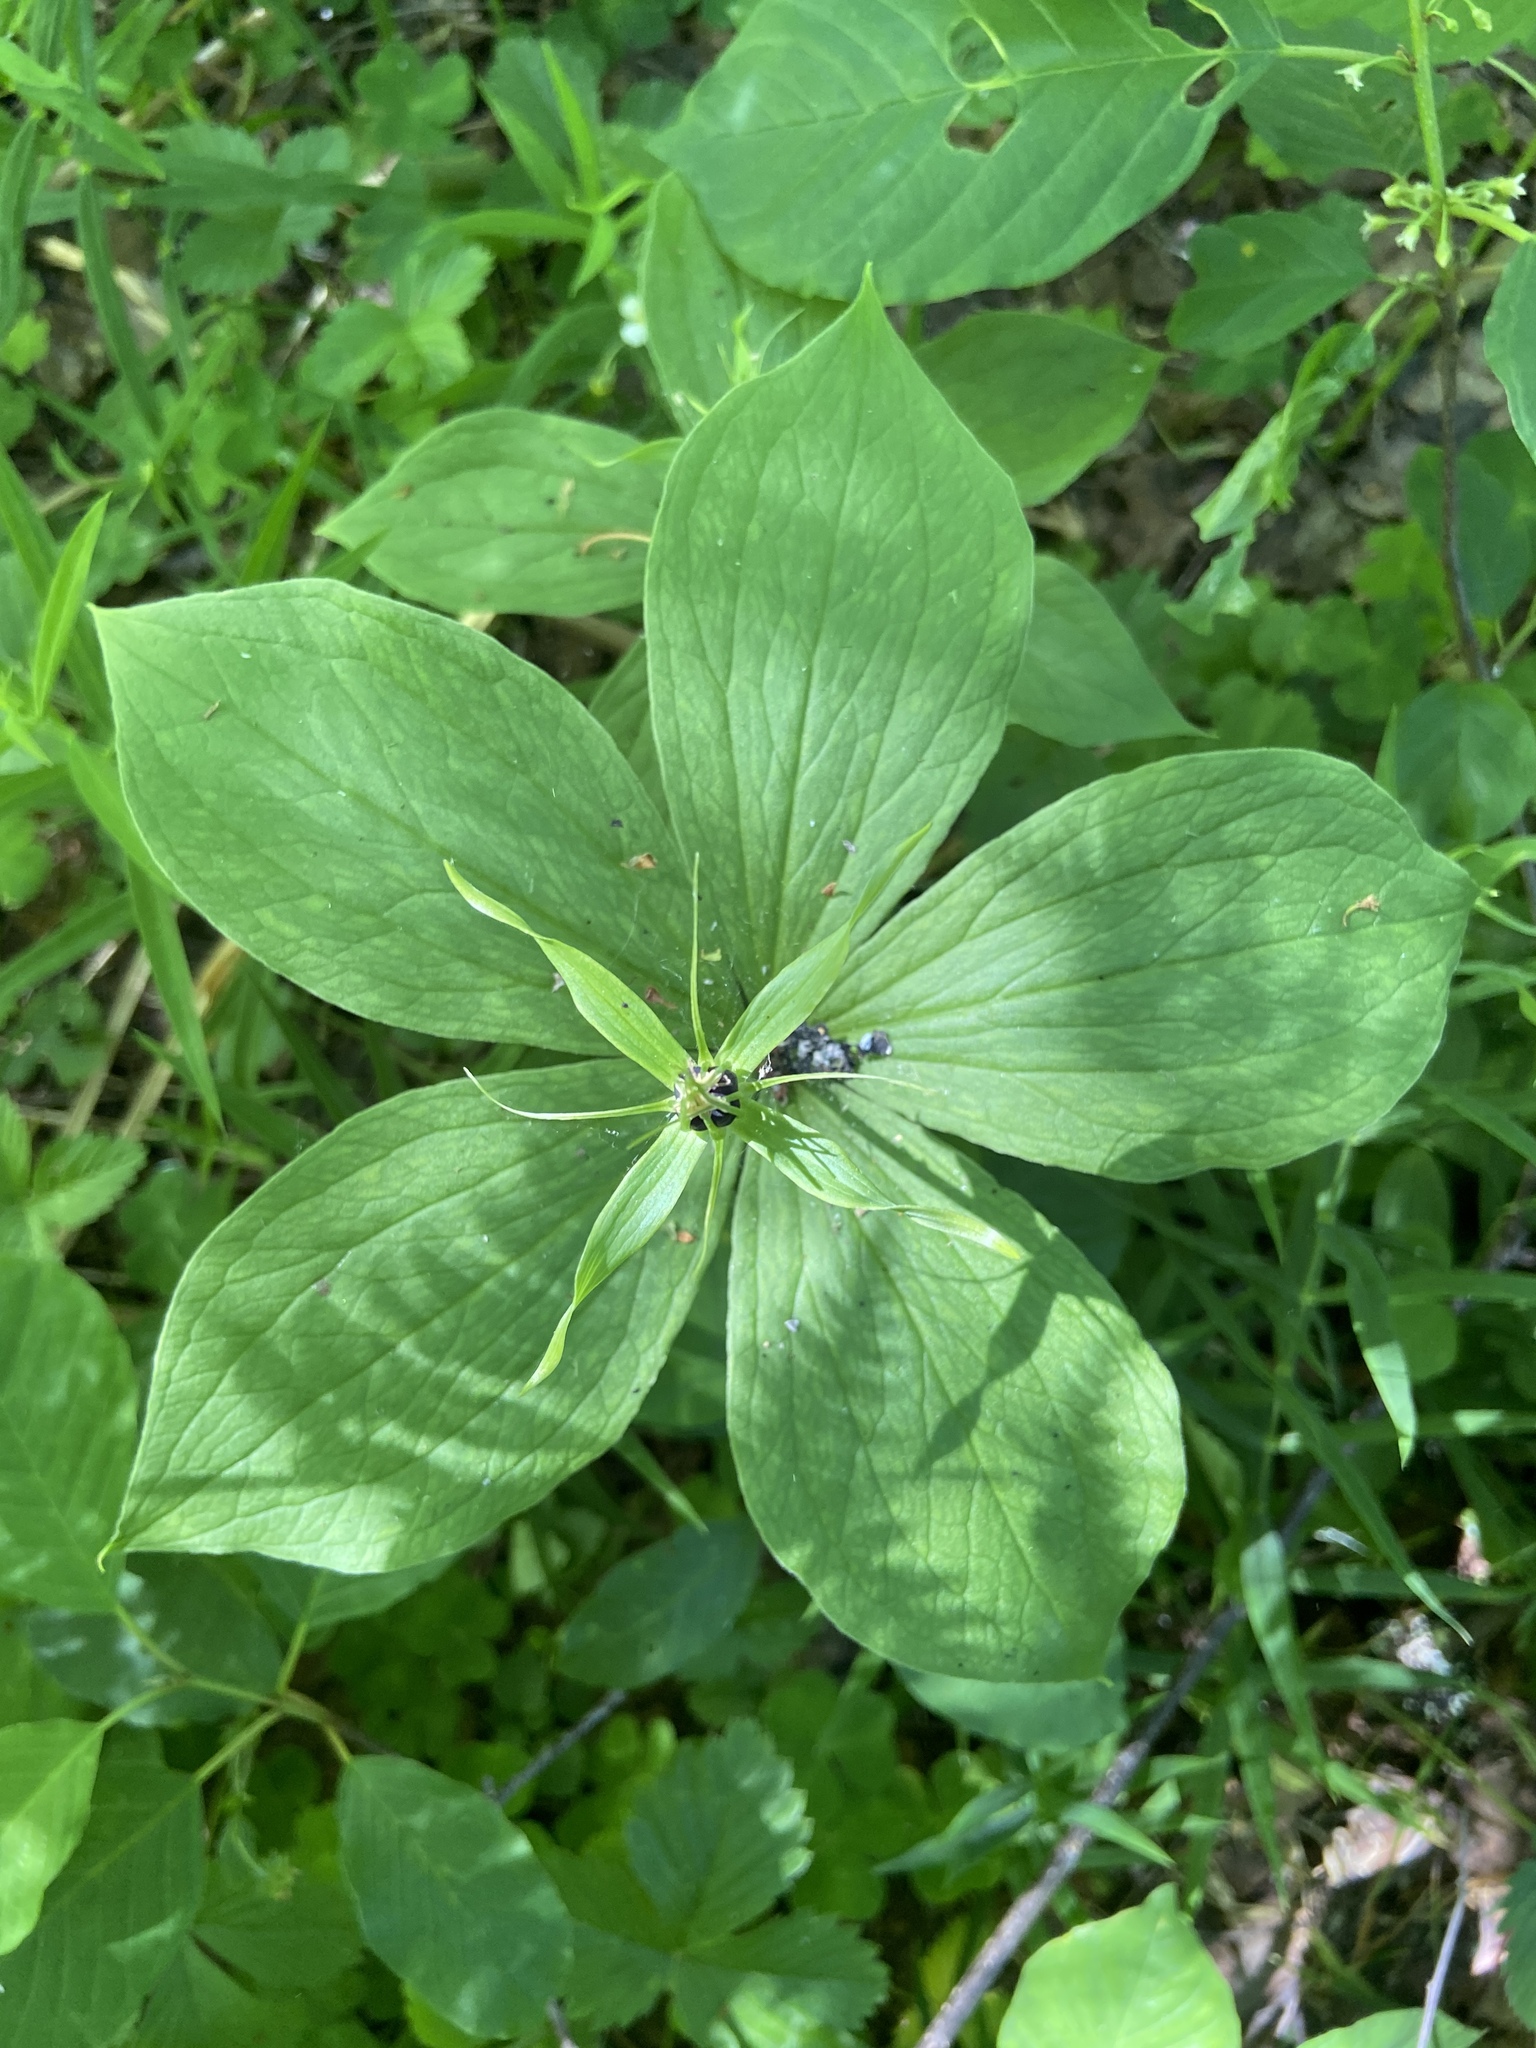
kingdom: Plantae
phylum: Tracheophyta
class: Liliopsida
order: Liliales
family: Melanthiaceae
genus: Paris
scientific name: Paris quadrifolia
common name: Herb-paris
